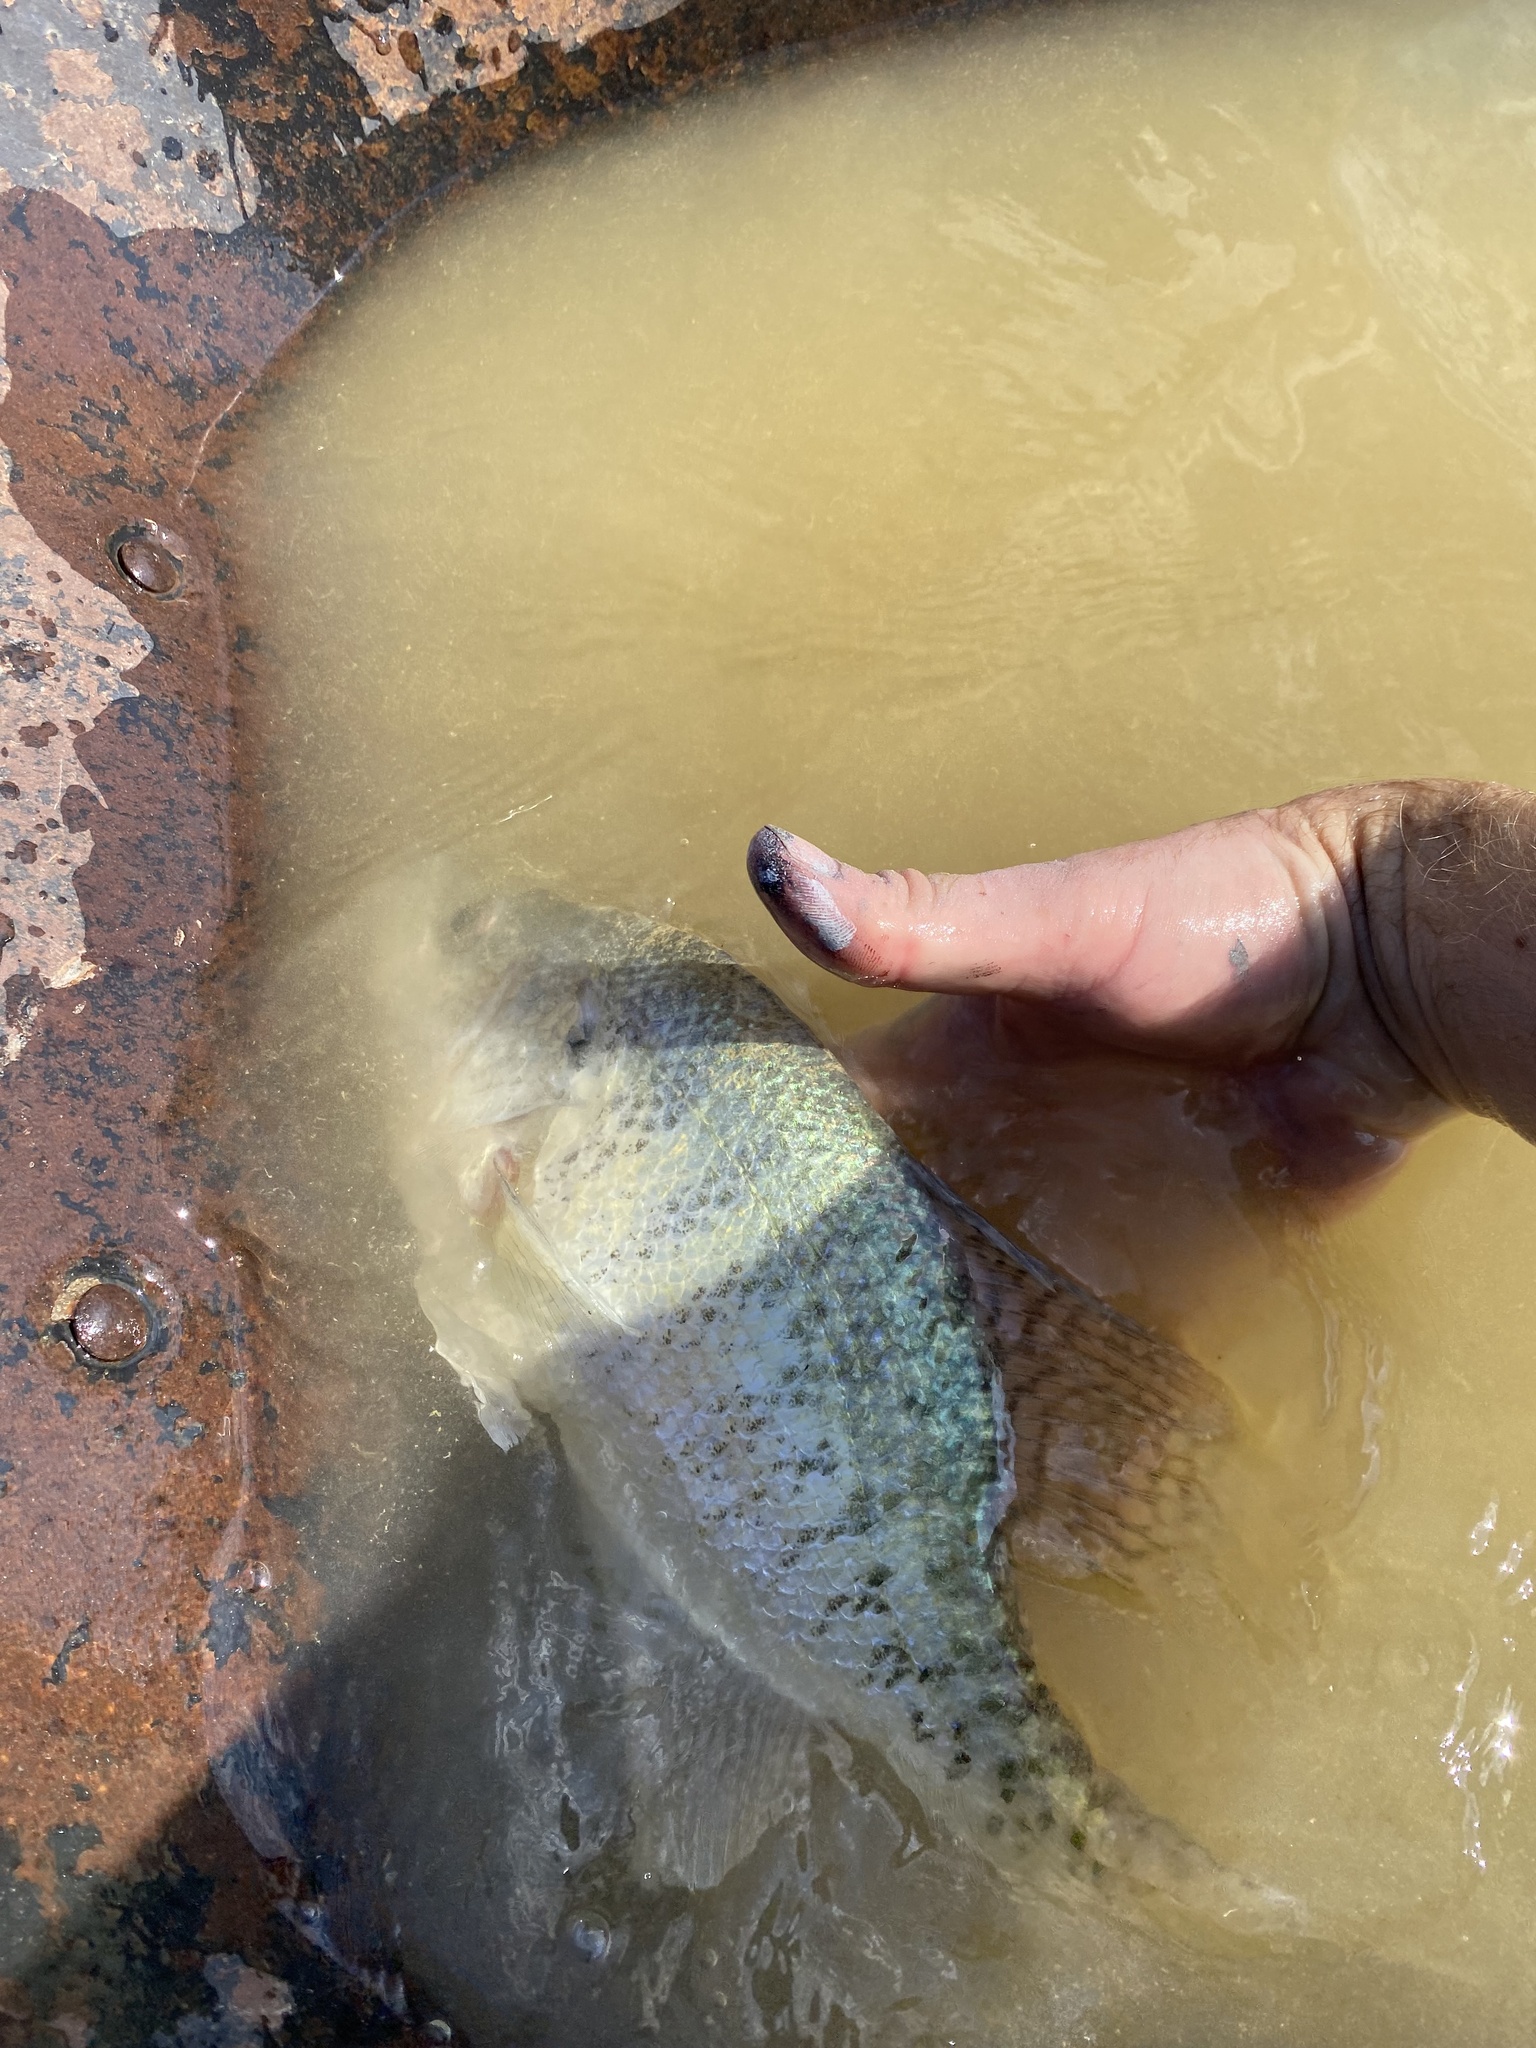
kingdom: Animalia
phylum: Chordata
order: Perciformes
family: Centrarchidae
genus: Pomoxis
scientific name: Pomoxis annularis
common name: White crappie
